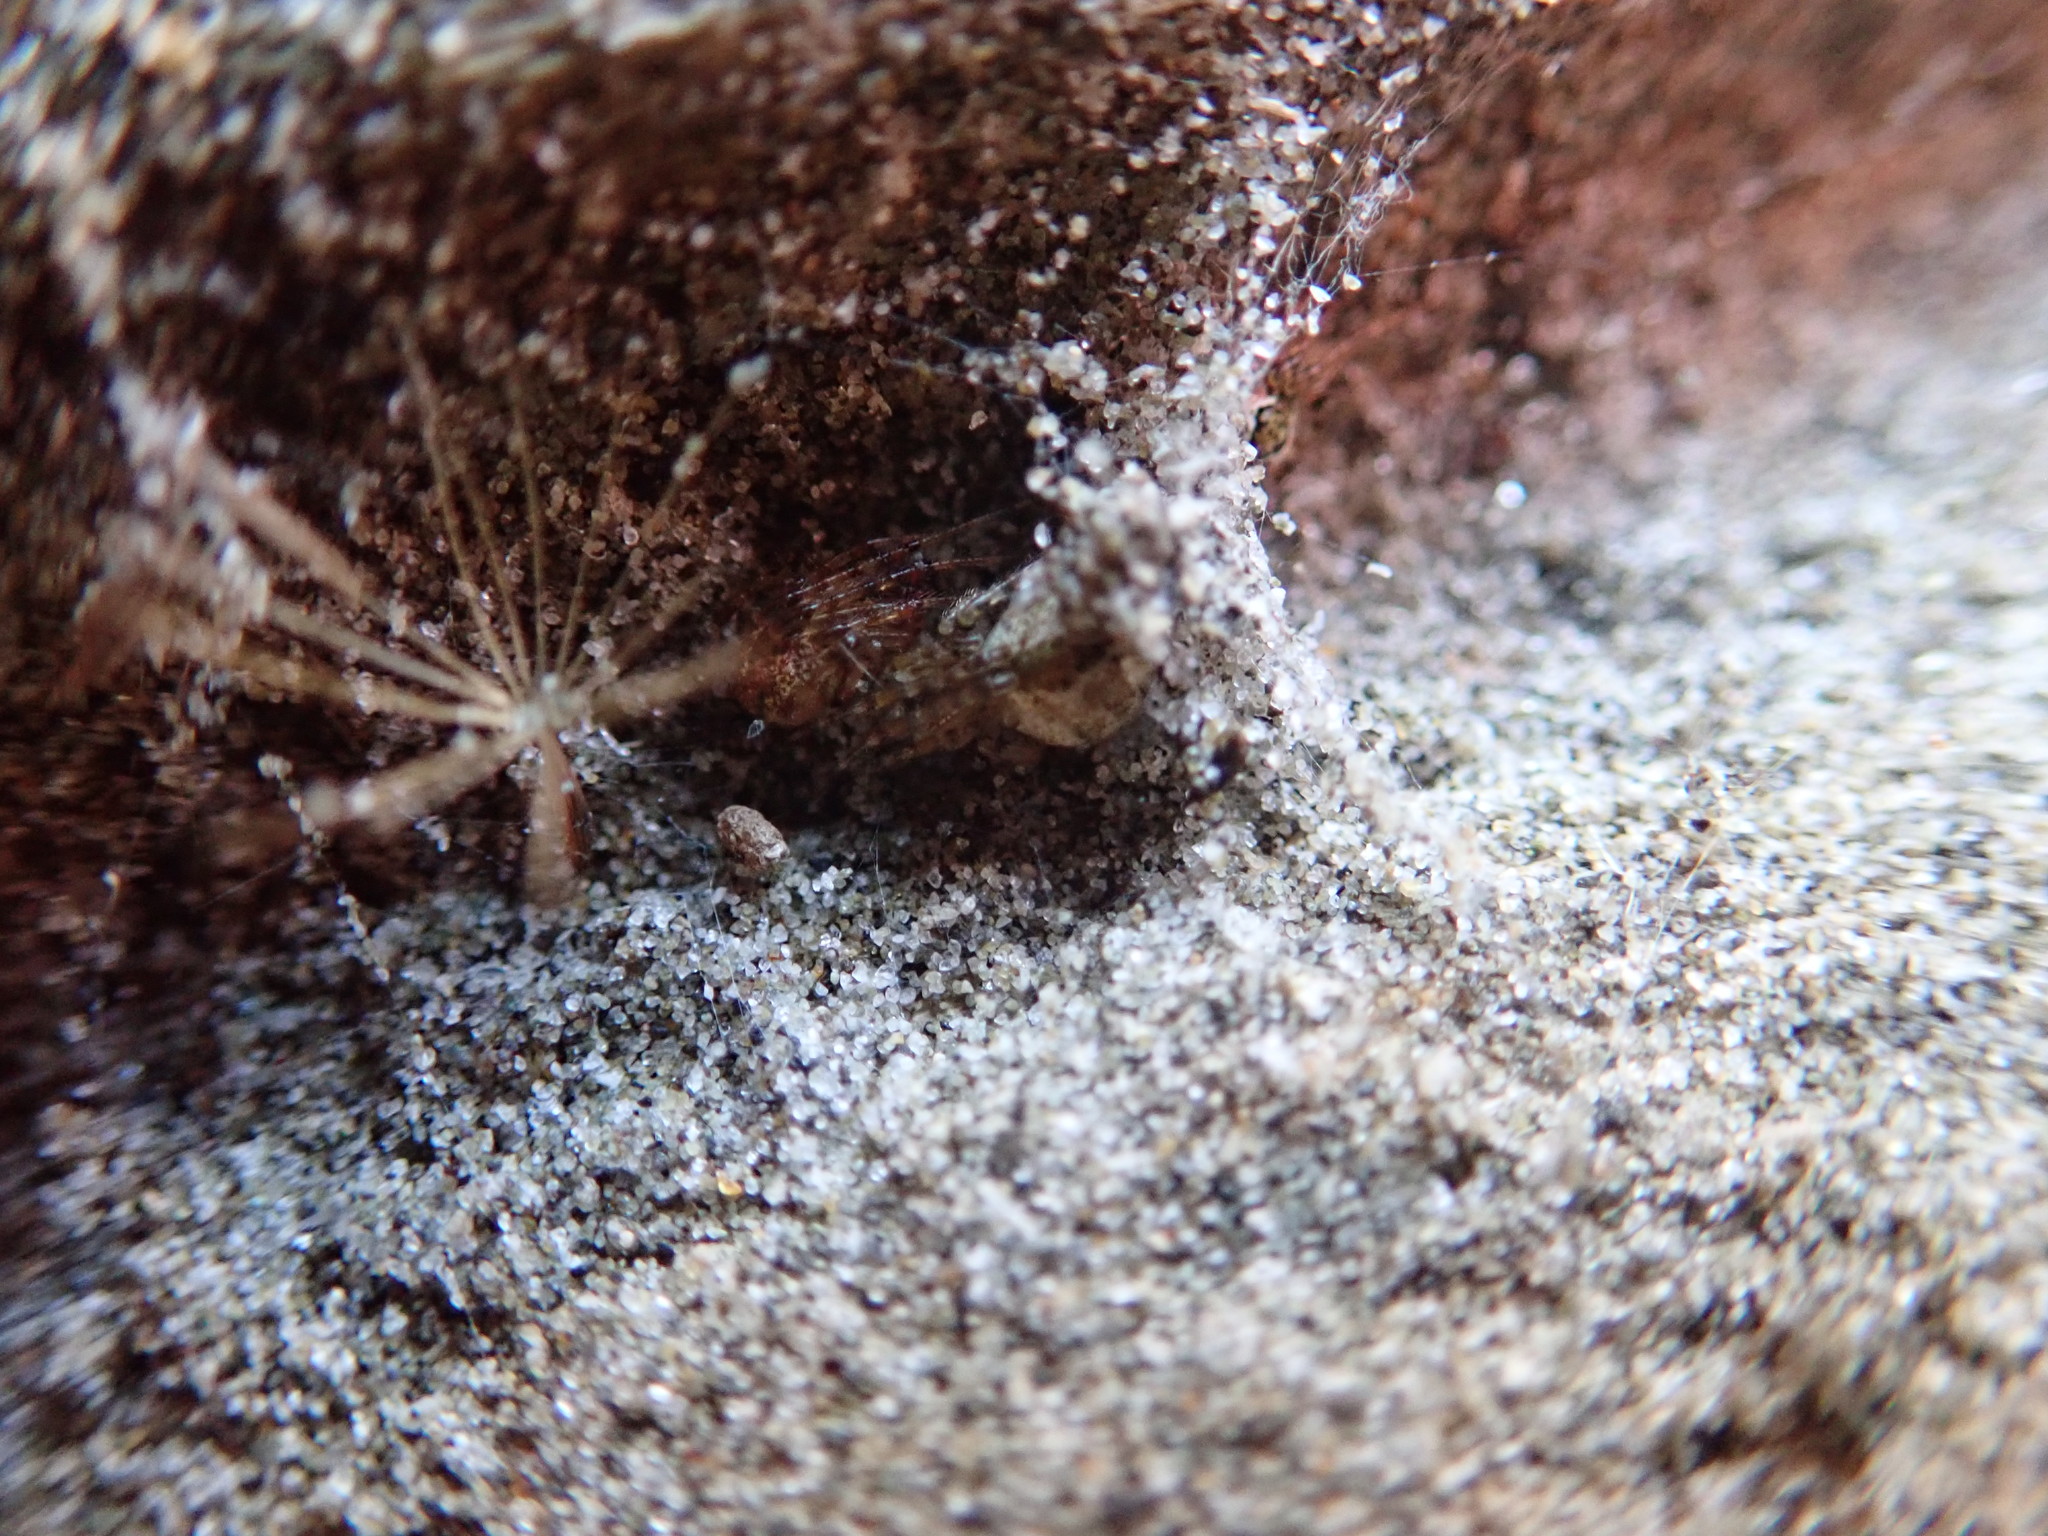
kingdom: Animalia
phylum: Arthropoda
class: Arachnida
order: Araneae
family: Theridiidae
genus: Cryptachaea
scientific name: Cryptachaea veruculata
